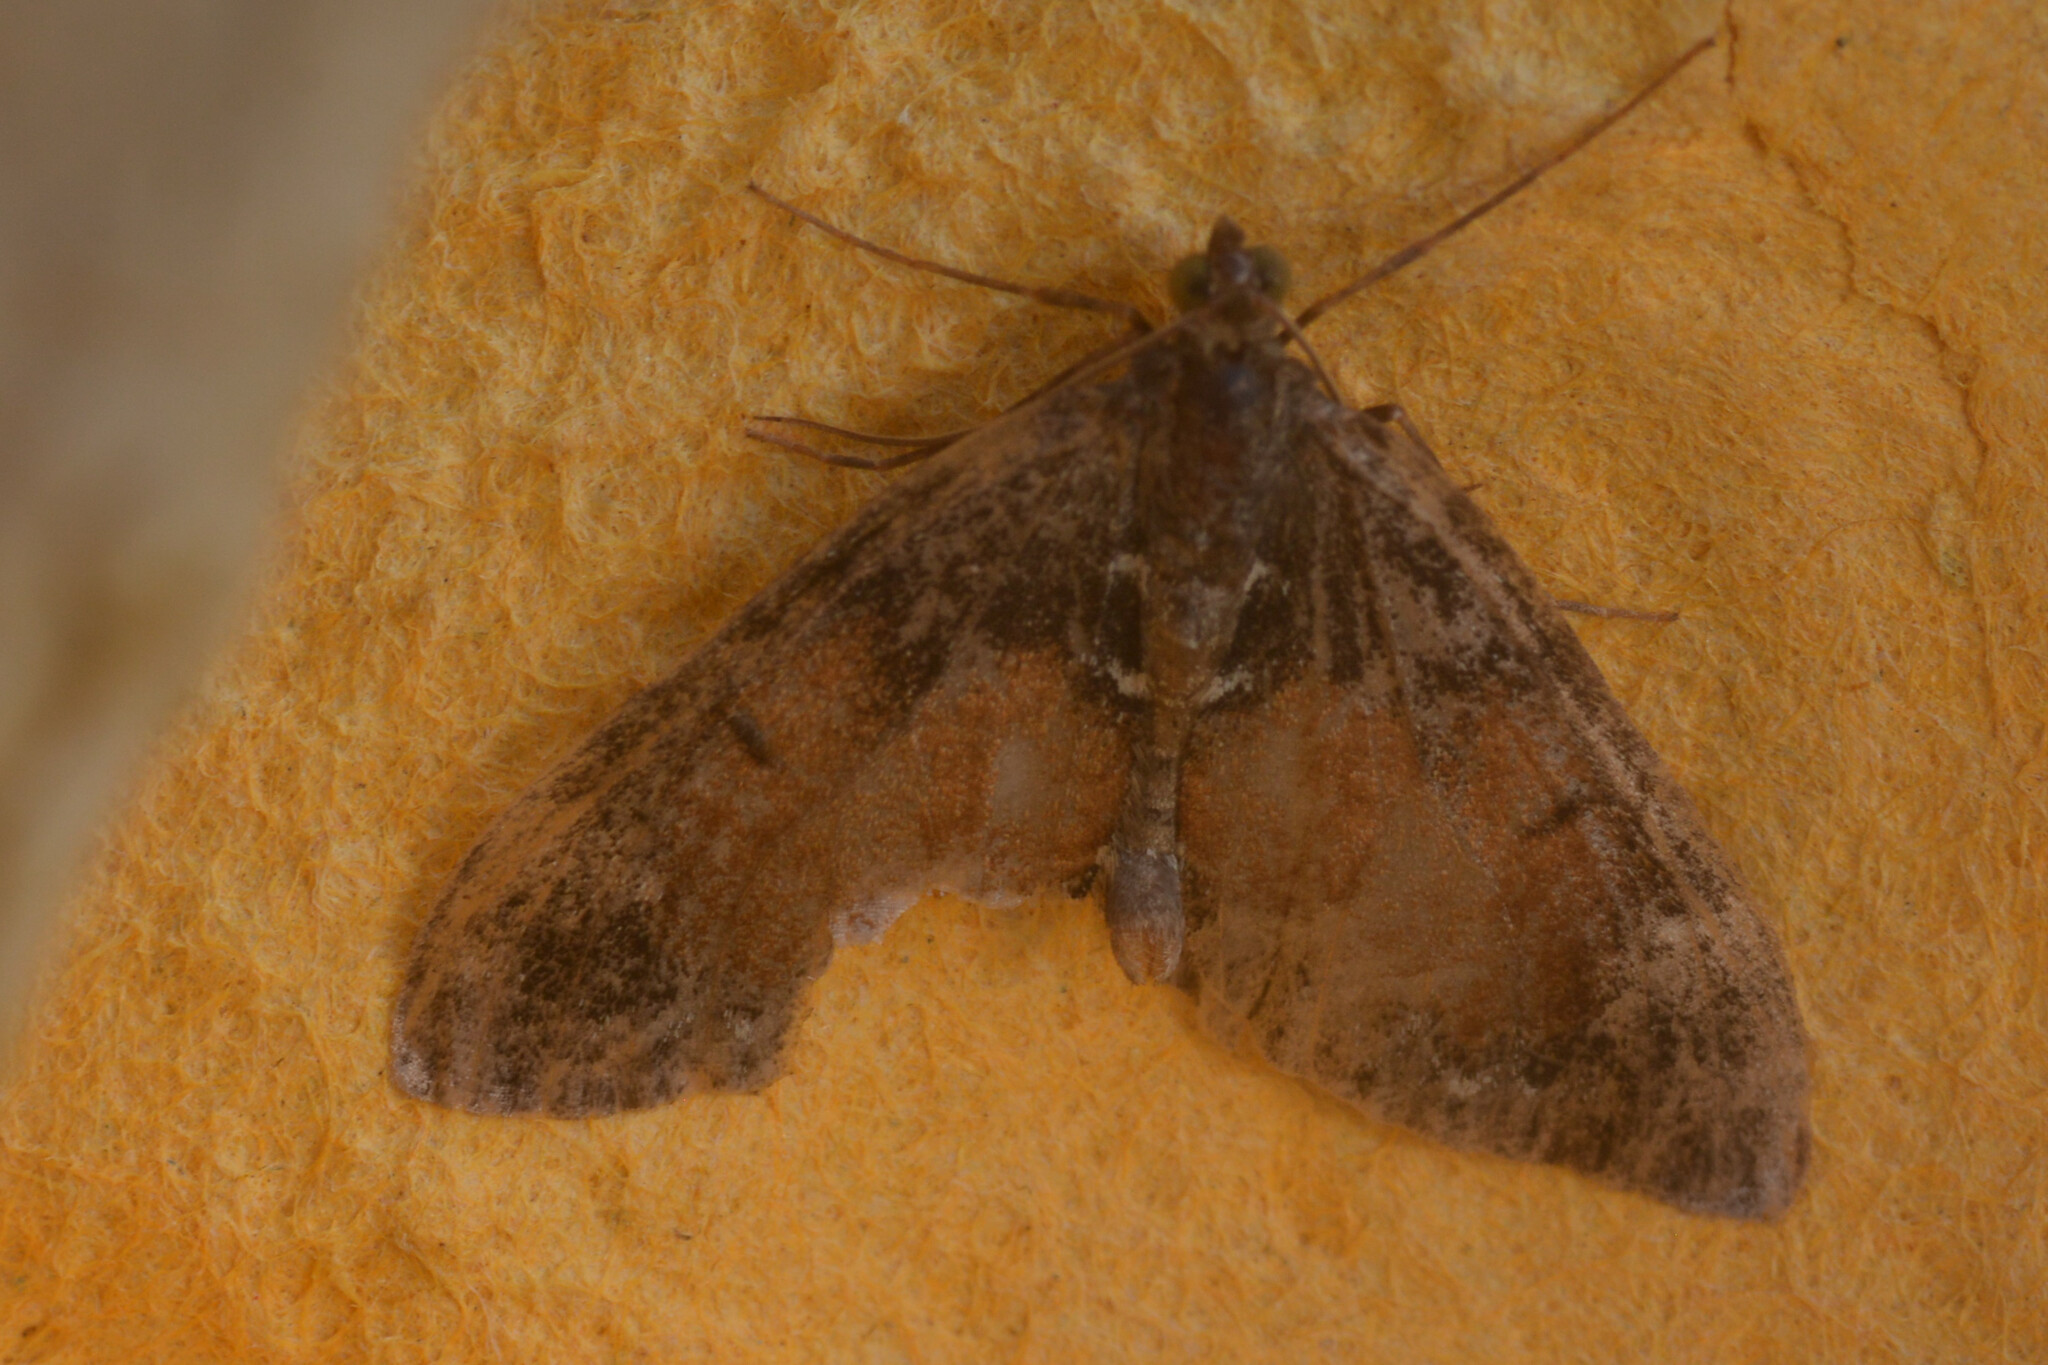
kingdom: Animalia
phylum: Arthropoda
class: Insecta
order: Lepidoptera
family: Geometridae
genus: Dysstroma
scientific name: Dysstroma
